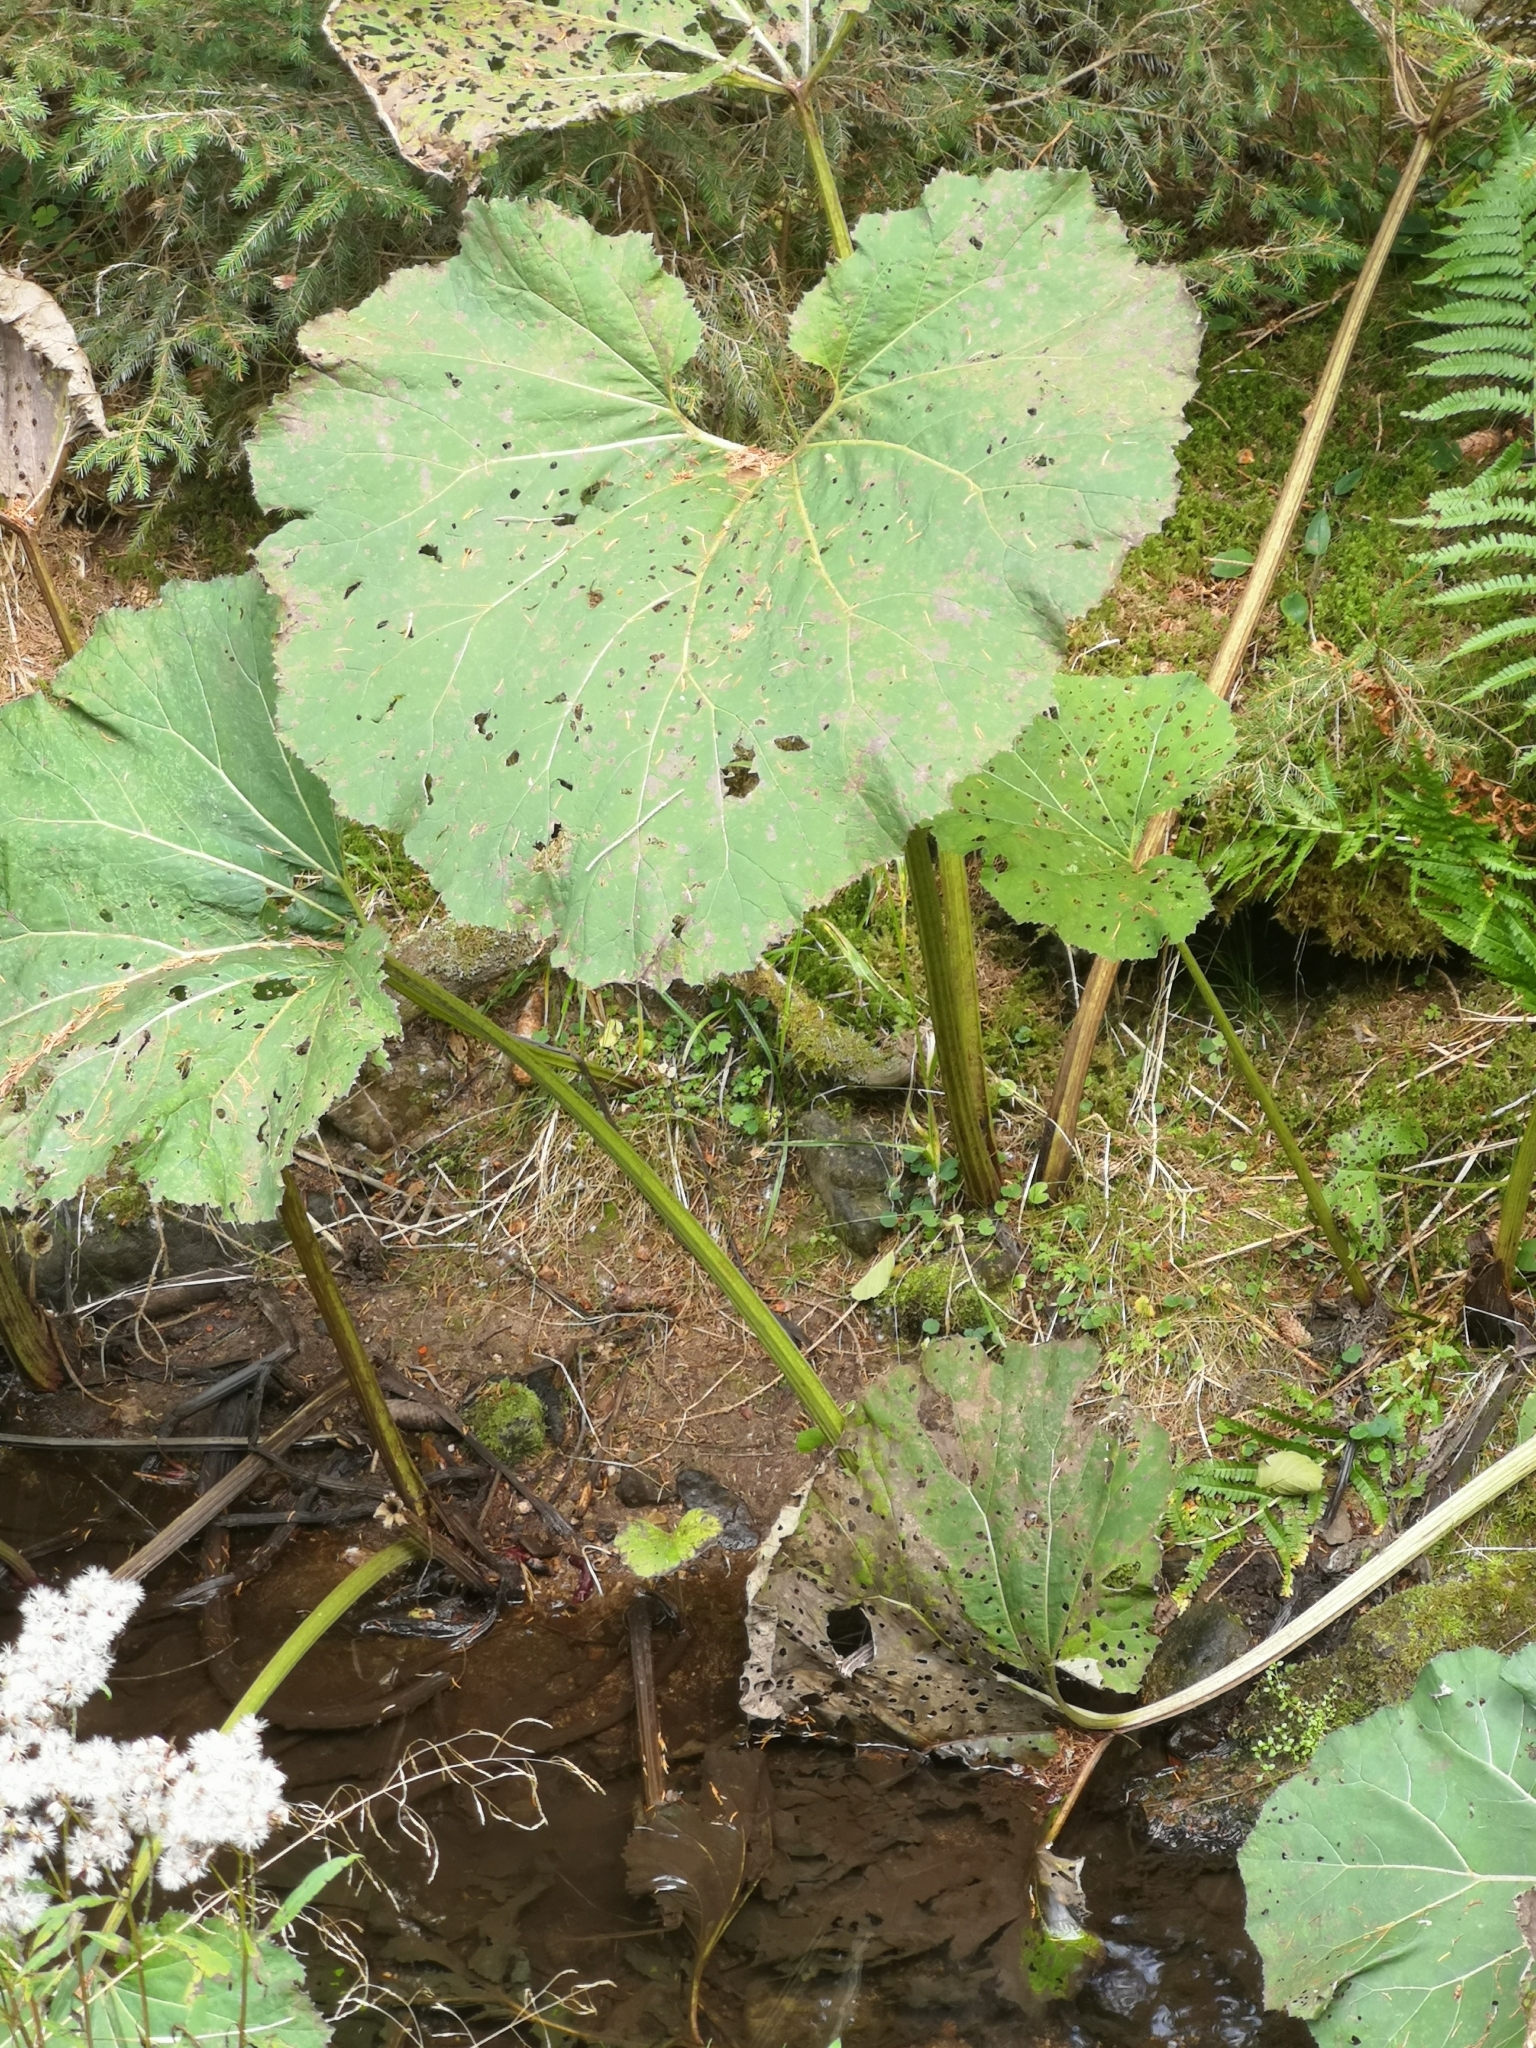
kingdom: Plantae
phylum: Tracheophyta
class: Magnoliopsida
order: Asterales
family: Asteraceae
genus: Petasites
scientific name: Petasites hybridus
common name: Butterbur
